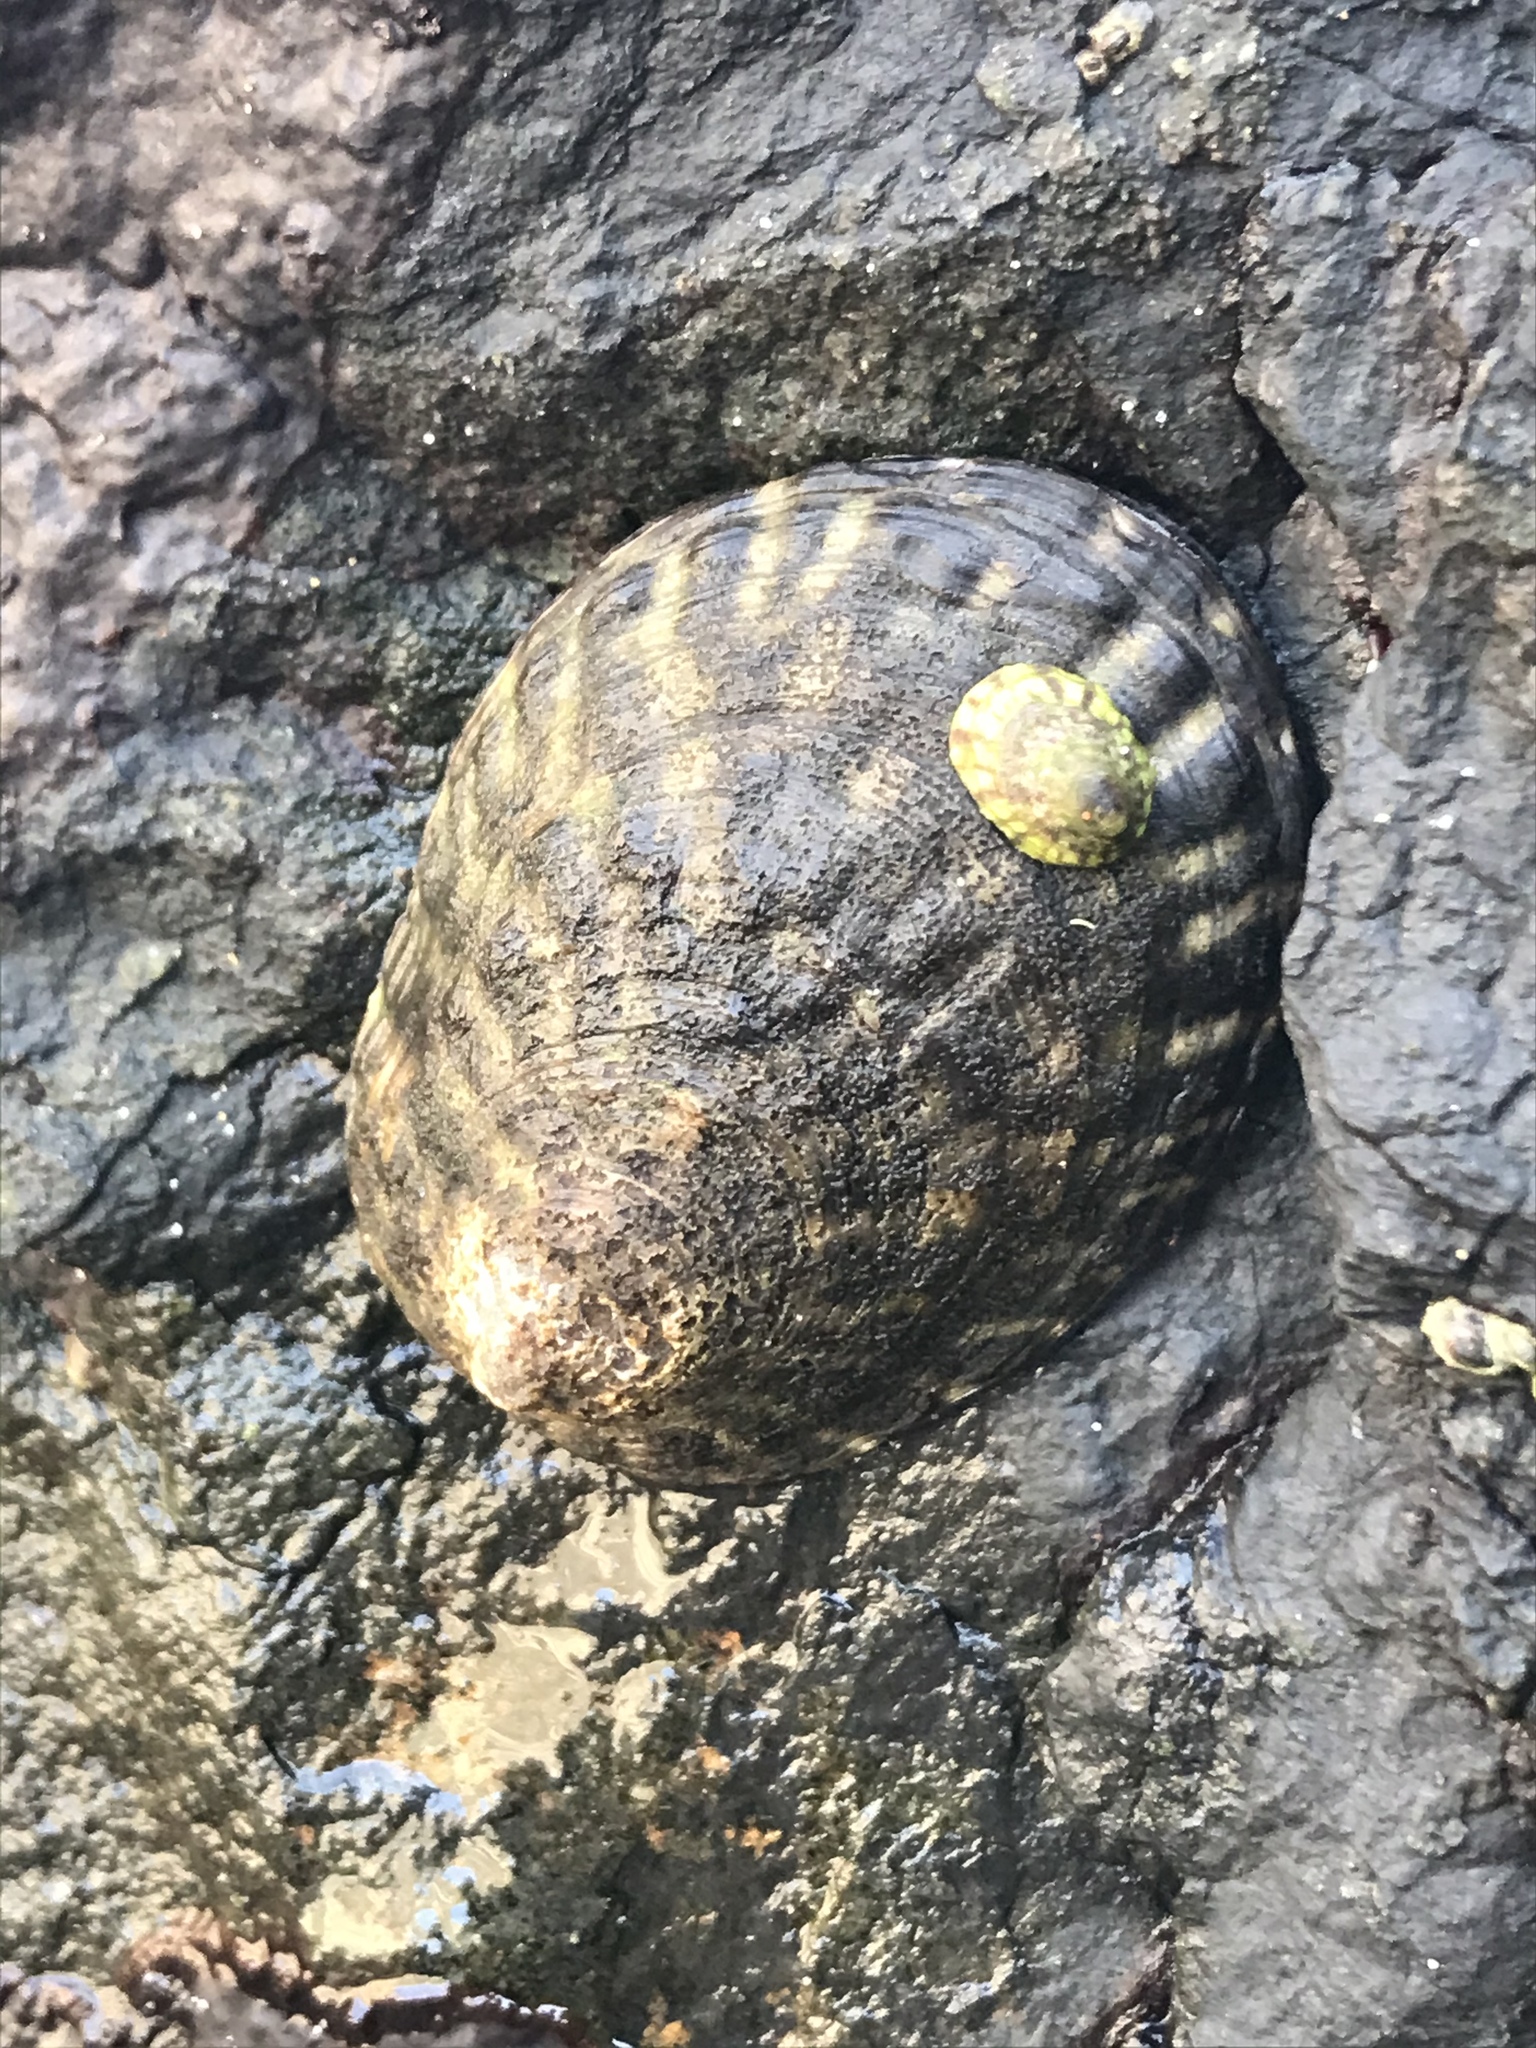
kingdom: Animalia
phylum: Mollusca
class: Gastropoda
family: Lottiidae
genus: Lottia
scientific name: Lottia gigantea
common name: Owl limpet
